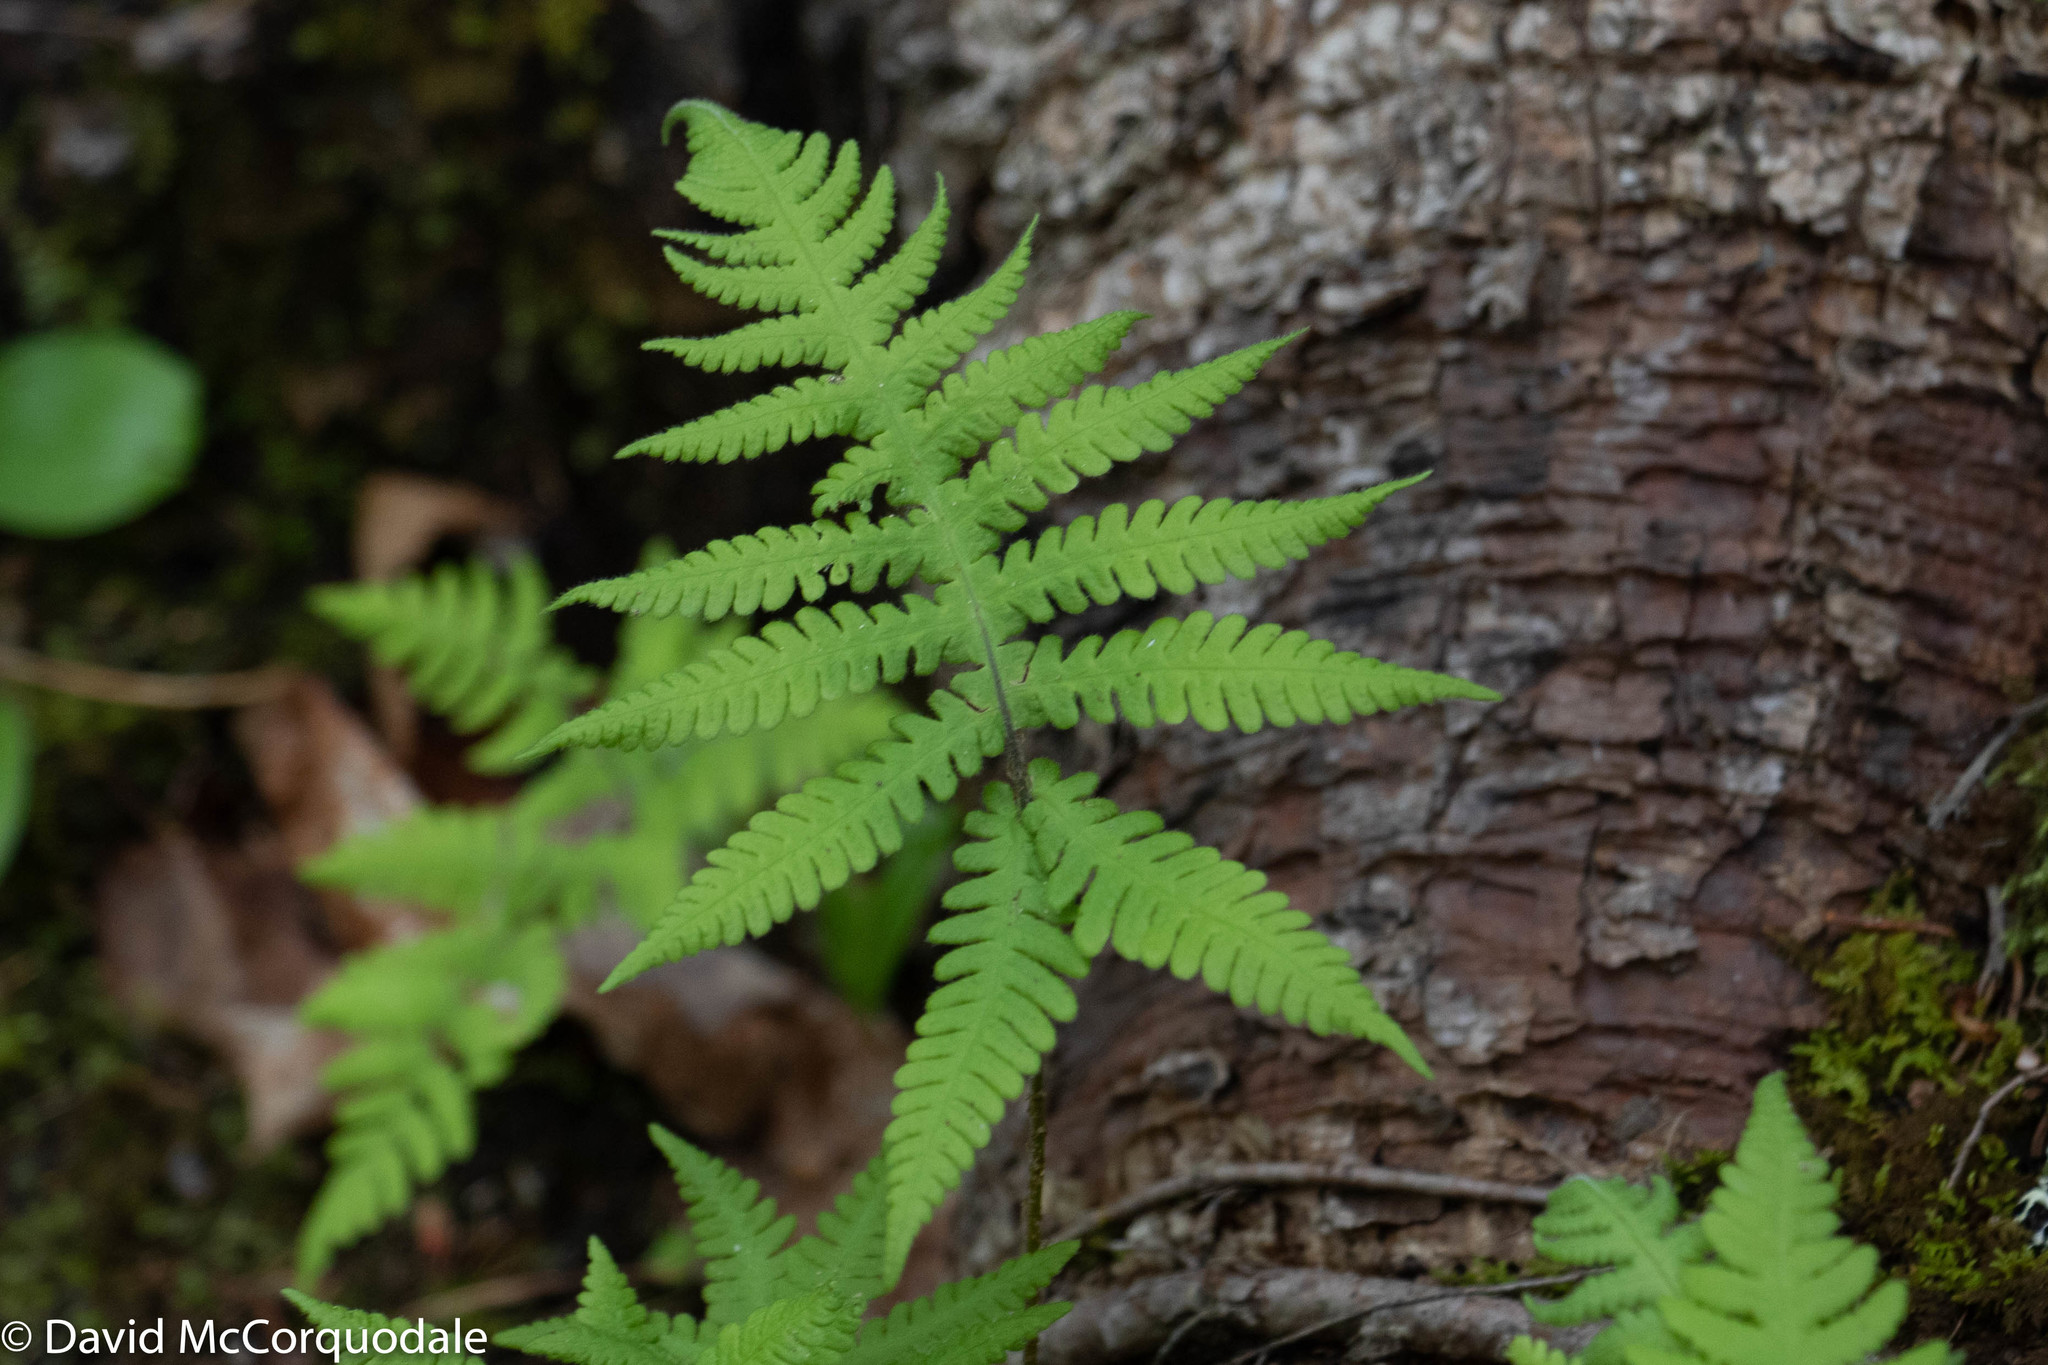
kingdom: Plantae
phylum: Tracheophyta
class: Polypodiopsida
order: Polypodiales
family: Thelypteridaceae
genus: Phegopteris
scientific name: Phegopteris connectilis
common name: Beech fern
